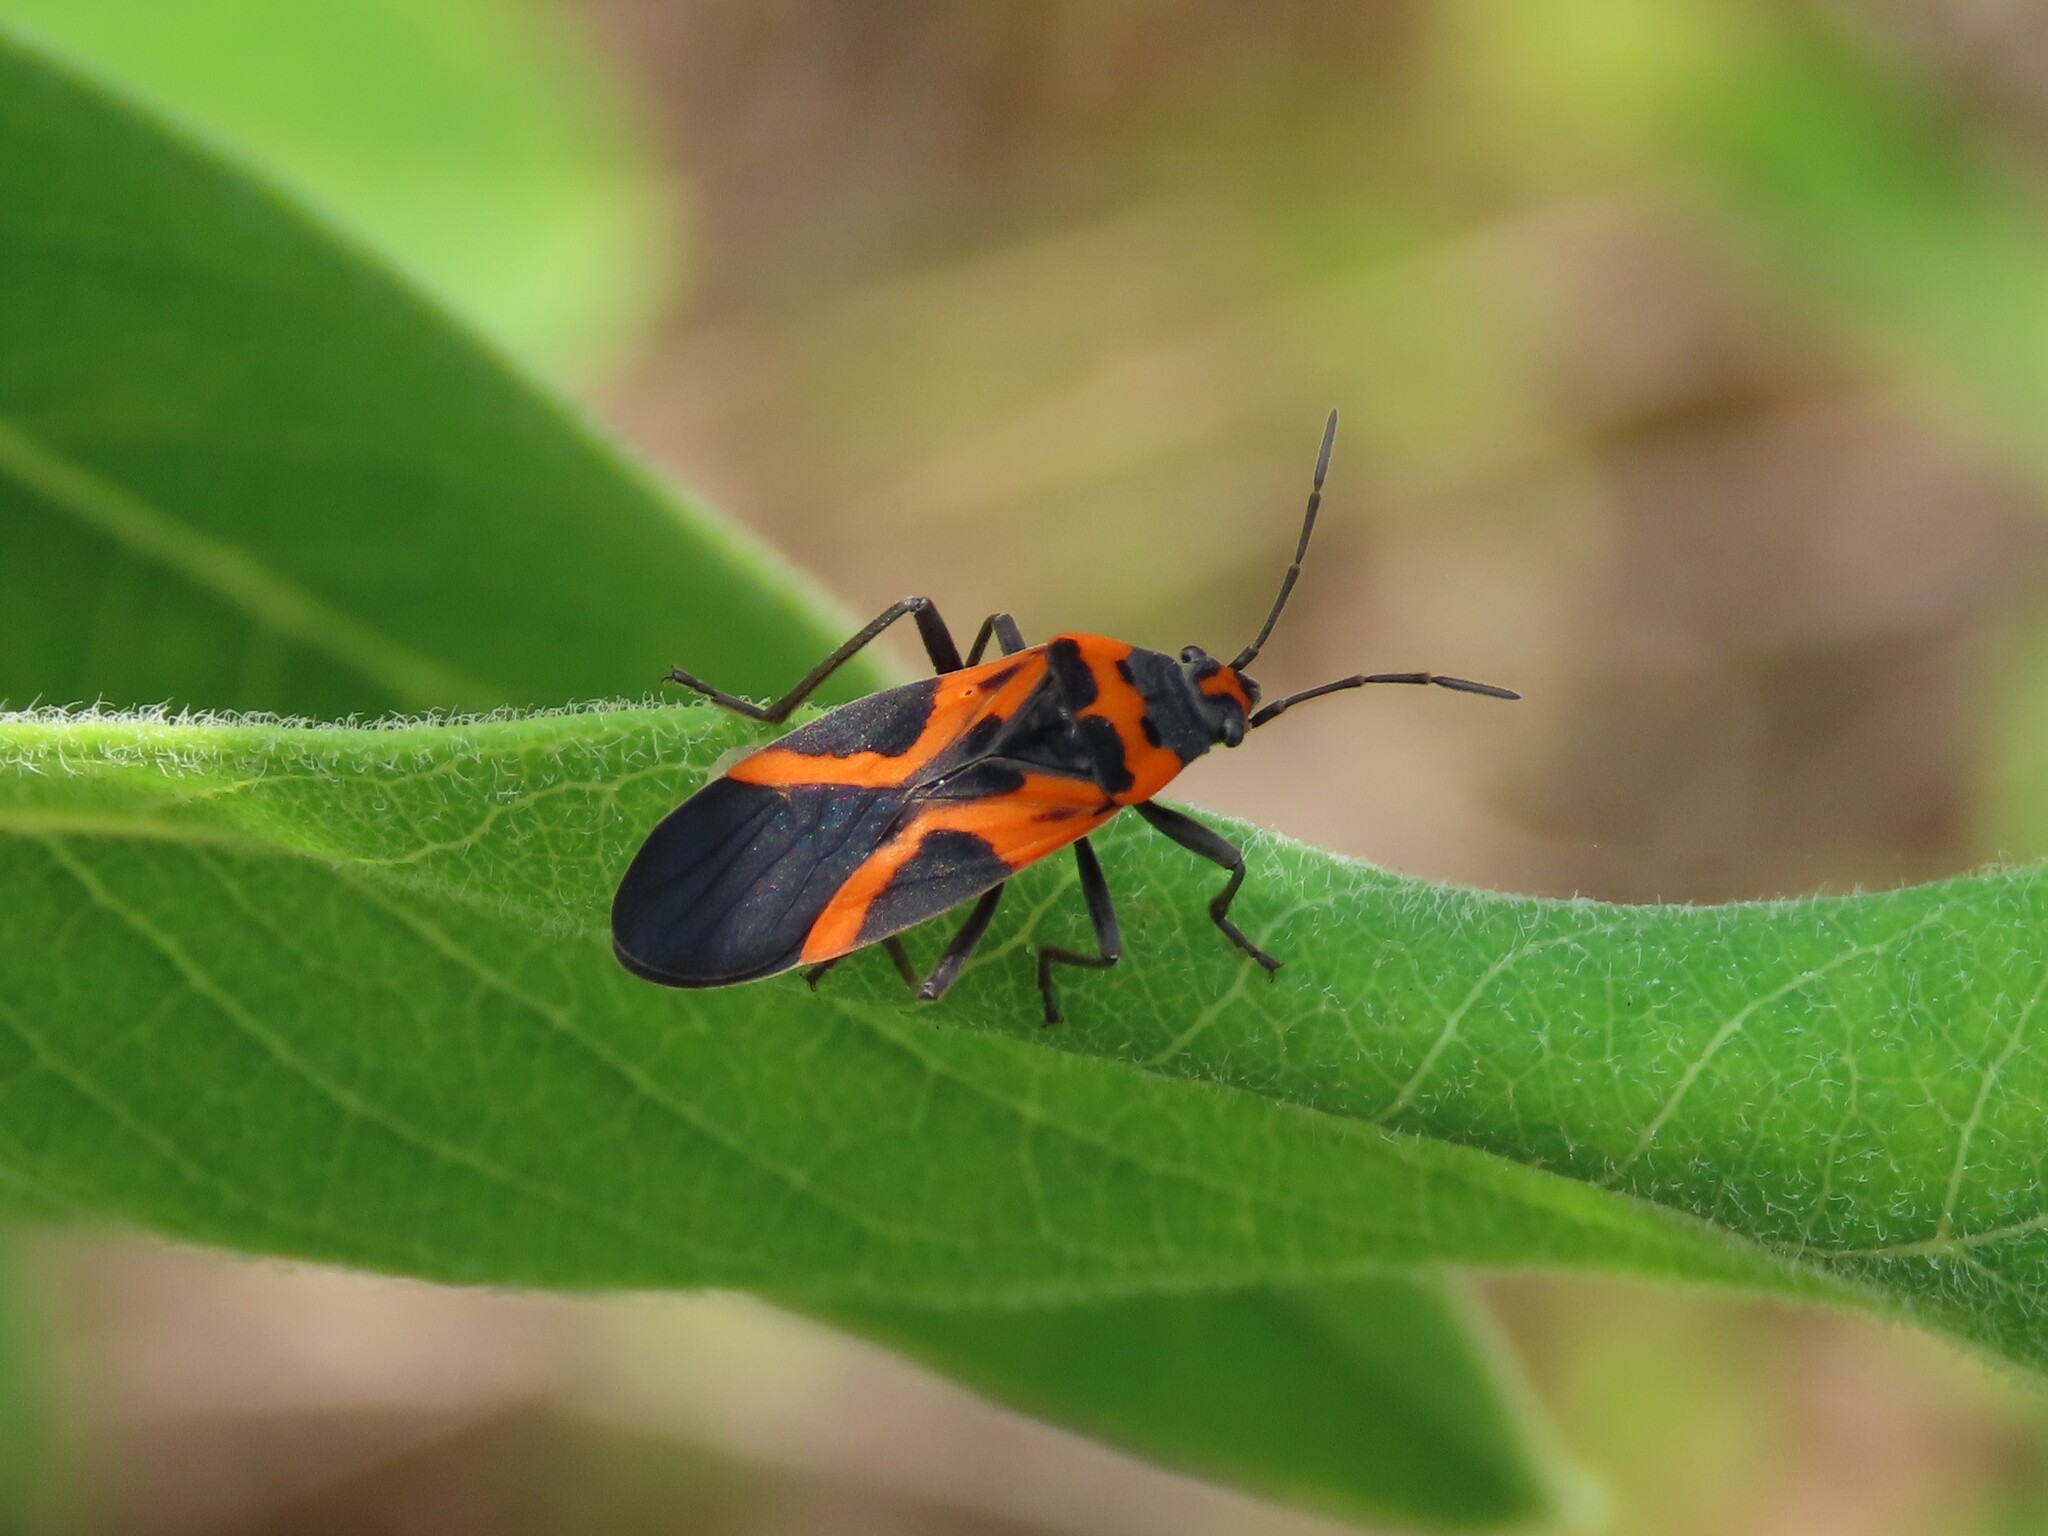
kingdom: Animalia
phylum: Arthropoda
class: Insecta
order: Hemiptera
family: Lygaeidae
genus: Lygaeus
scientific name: Lygaeus turcicus
